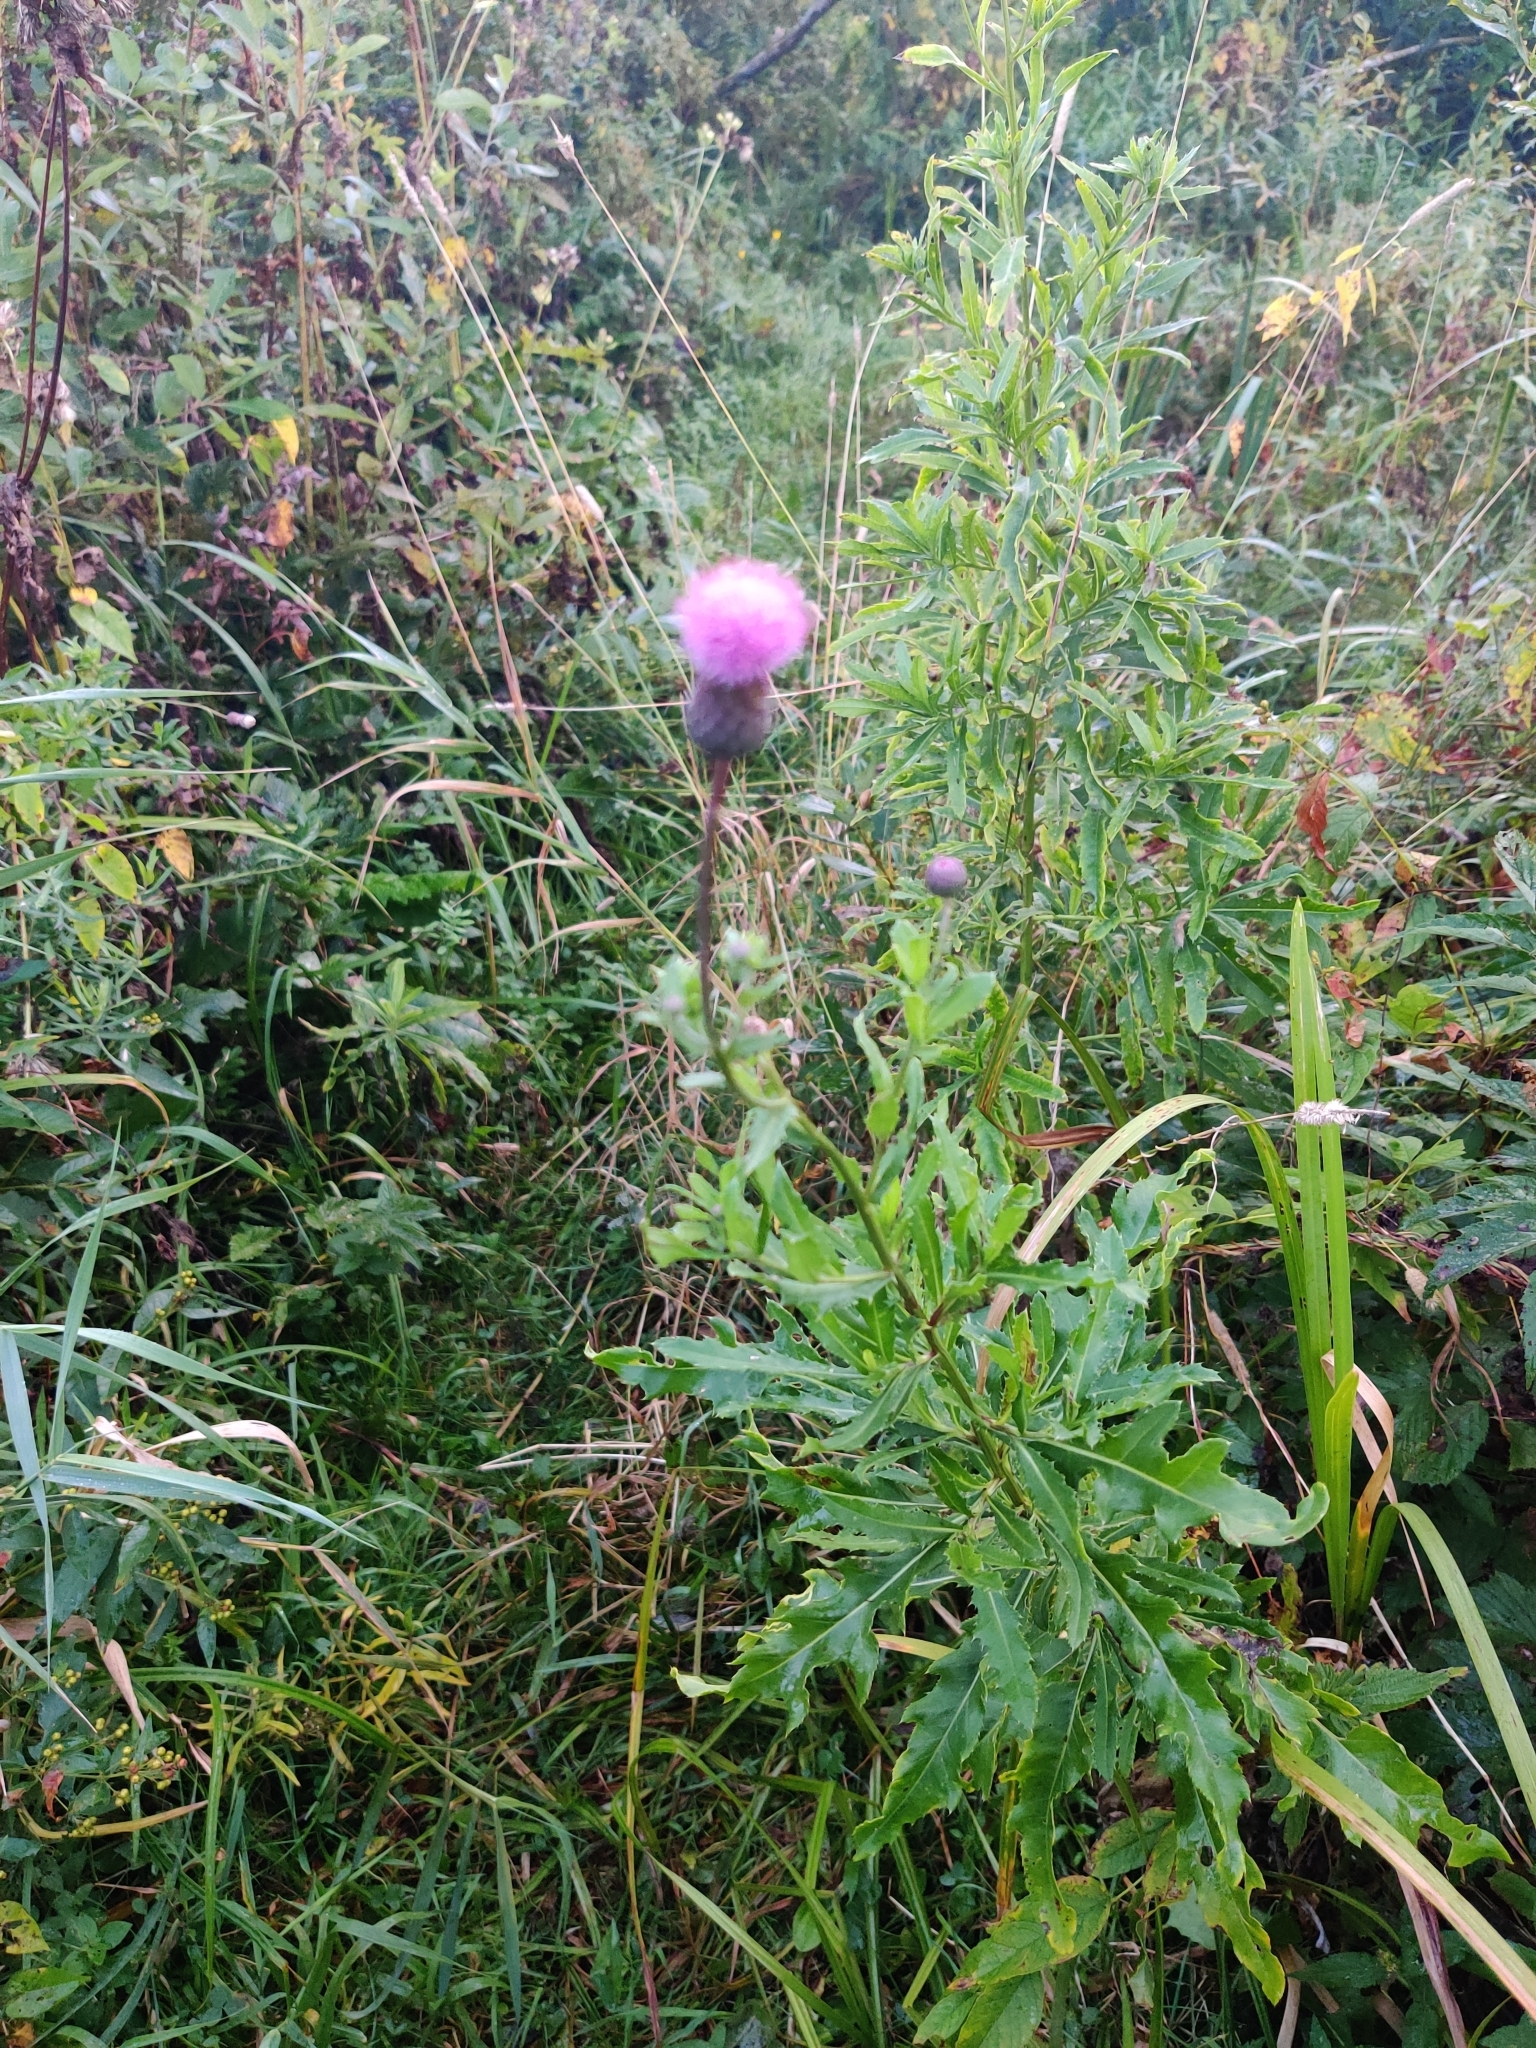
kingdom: Plantae
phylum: Tracheophyta
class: Magnoliopsida
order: Asterales
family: Asteraceae
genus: Cirsium
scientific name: Cirsium arvense
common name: Creeping thistle
